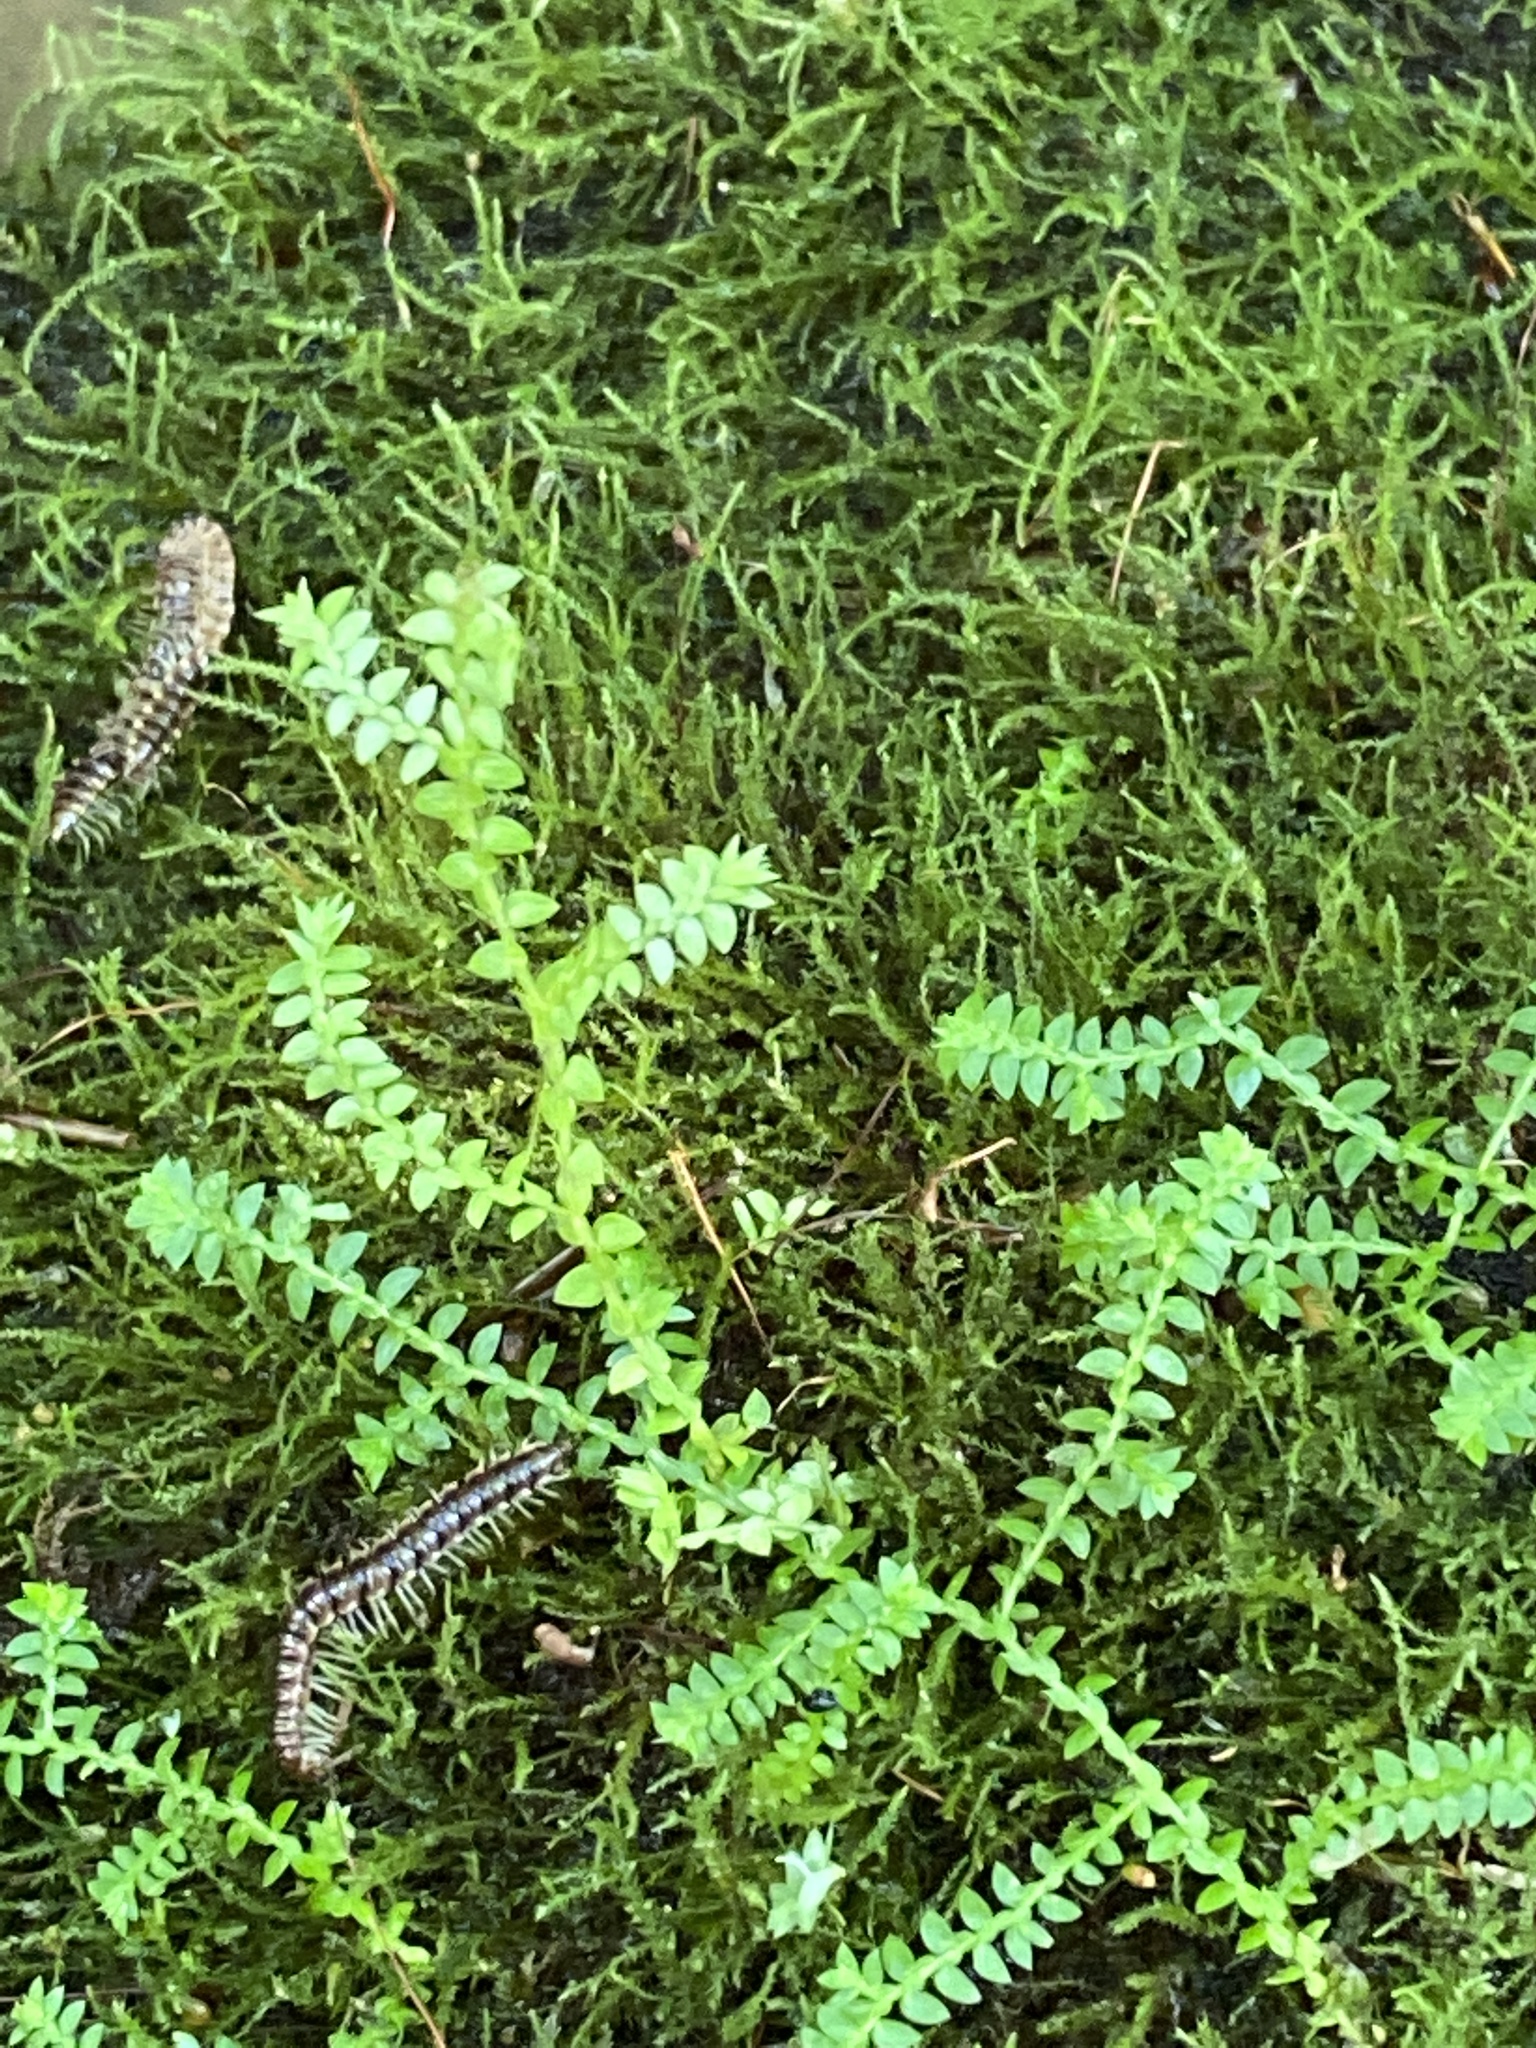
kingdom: Plantae
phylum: Tracheophyta
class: Lycopodiopsida
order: Selaginellales
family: Selaginellaceae
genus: Selaginella
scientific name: Selaginella apoda
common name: Creeping spikemoss
